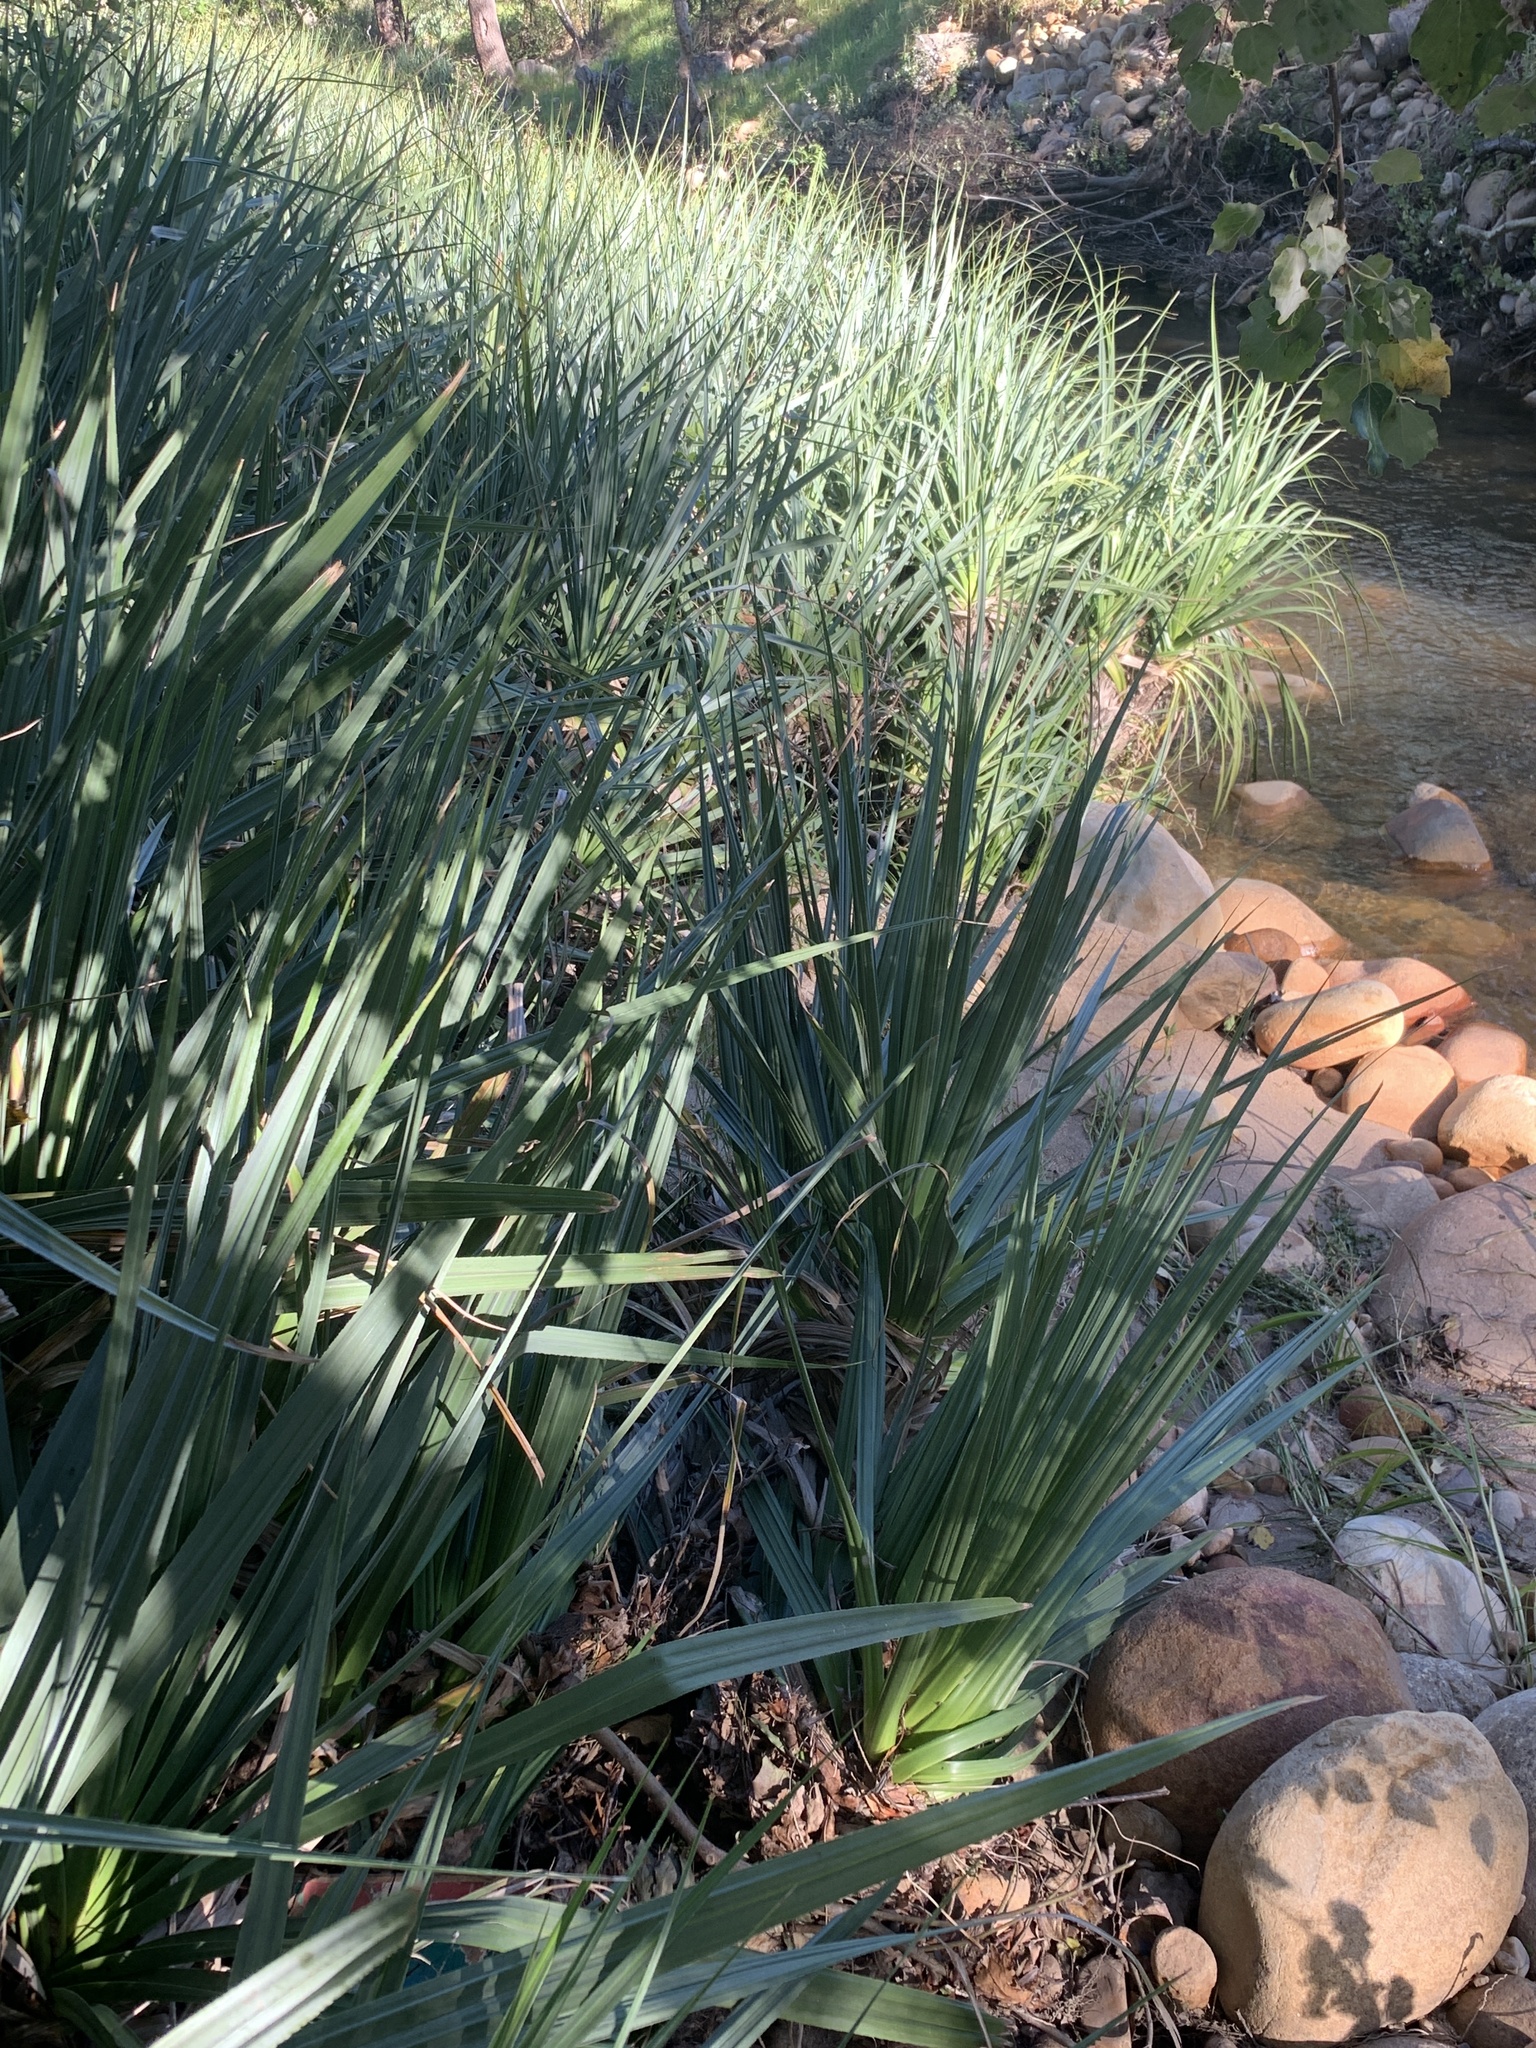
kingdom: Plantae
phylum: Tracheophyta
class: Liliopsida
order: Poales
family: Thurniaceae
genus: Prionium
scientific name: Prionium serratum
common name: Palmiet
